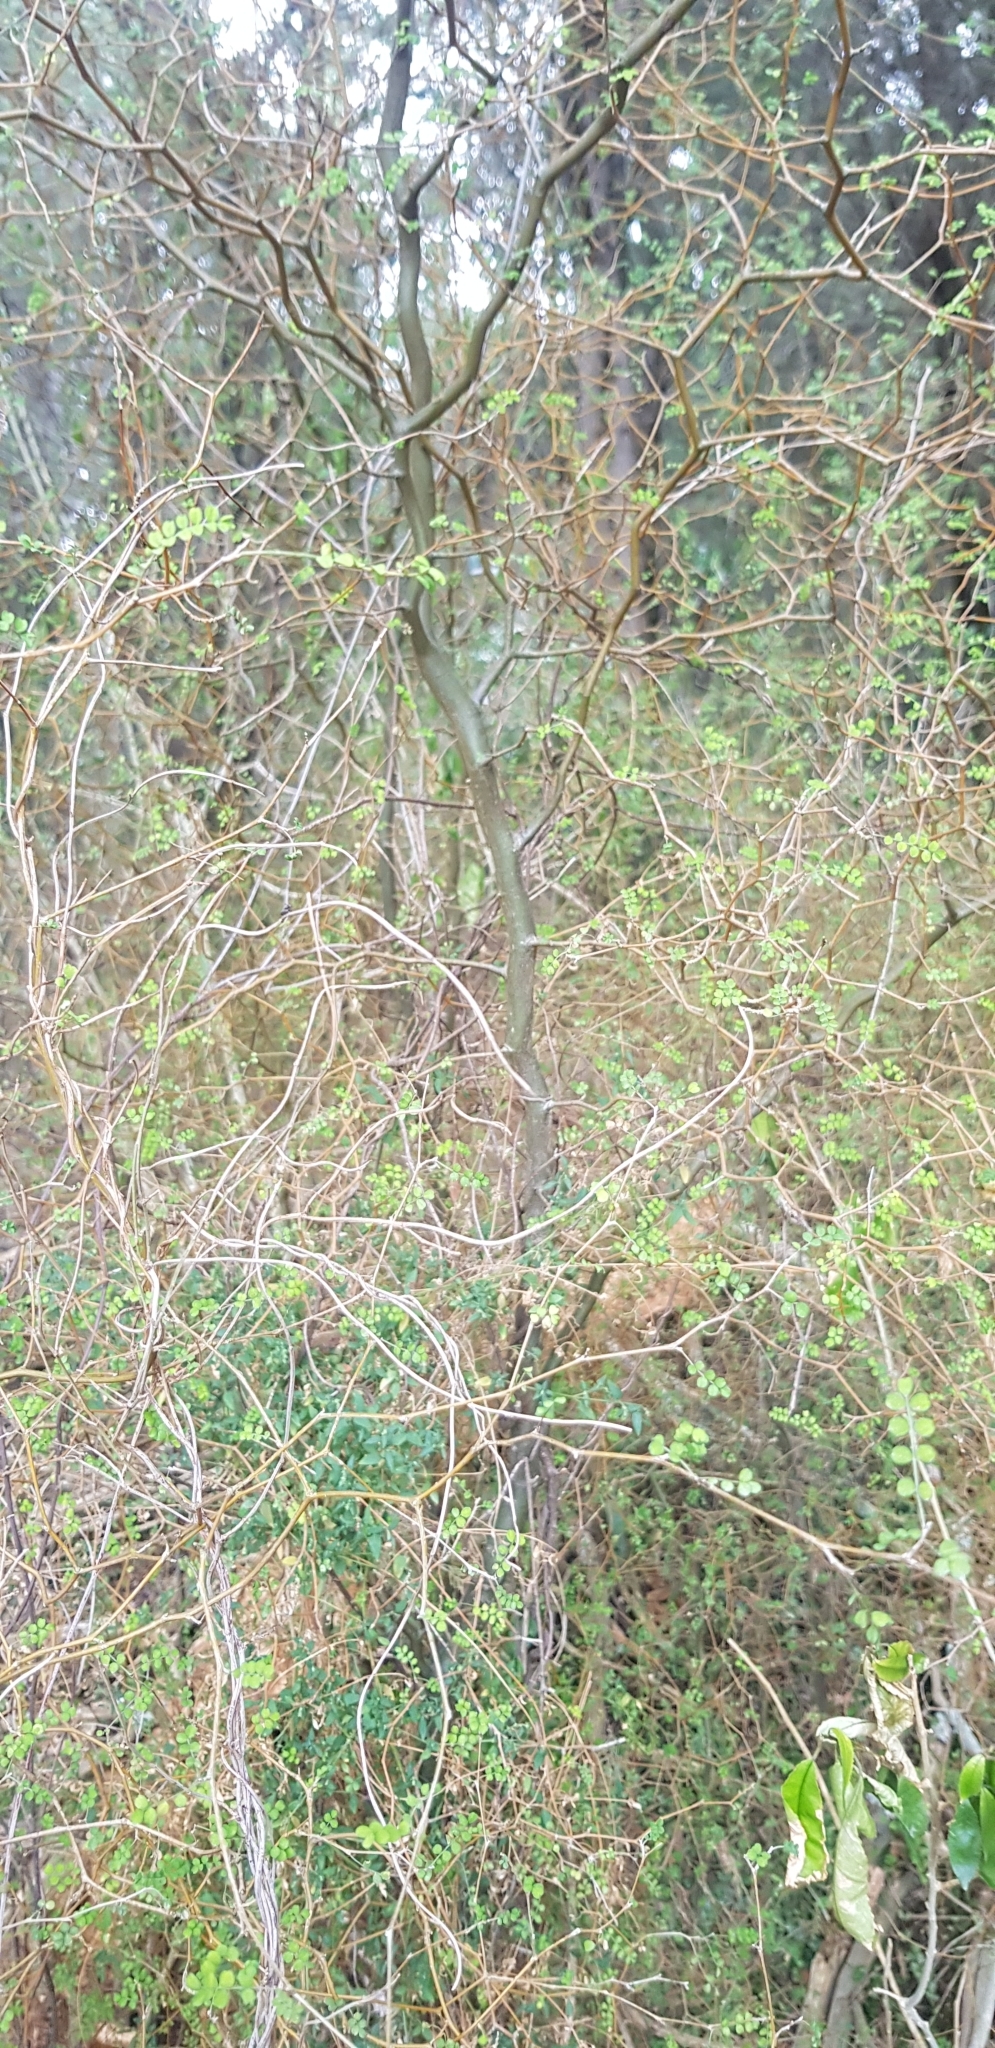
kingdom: Plantae
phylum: Tracheophyta
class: Magnoliopsida
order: Fabales
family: Fabaceae
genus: Sophora
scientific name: Sophora microphylla
